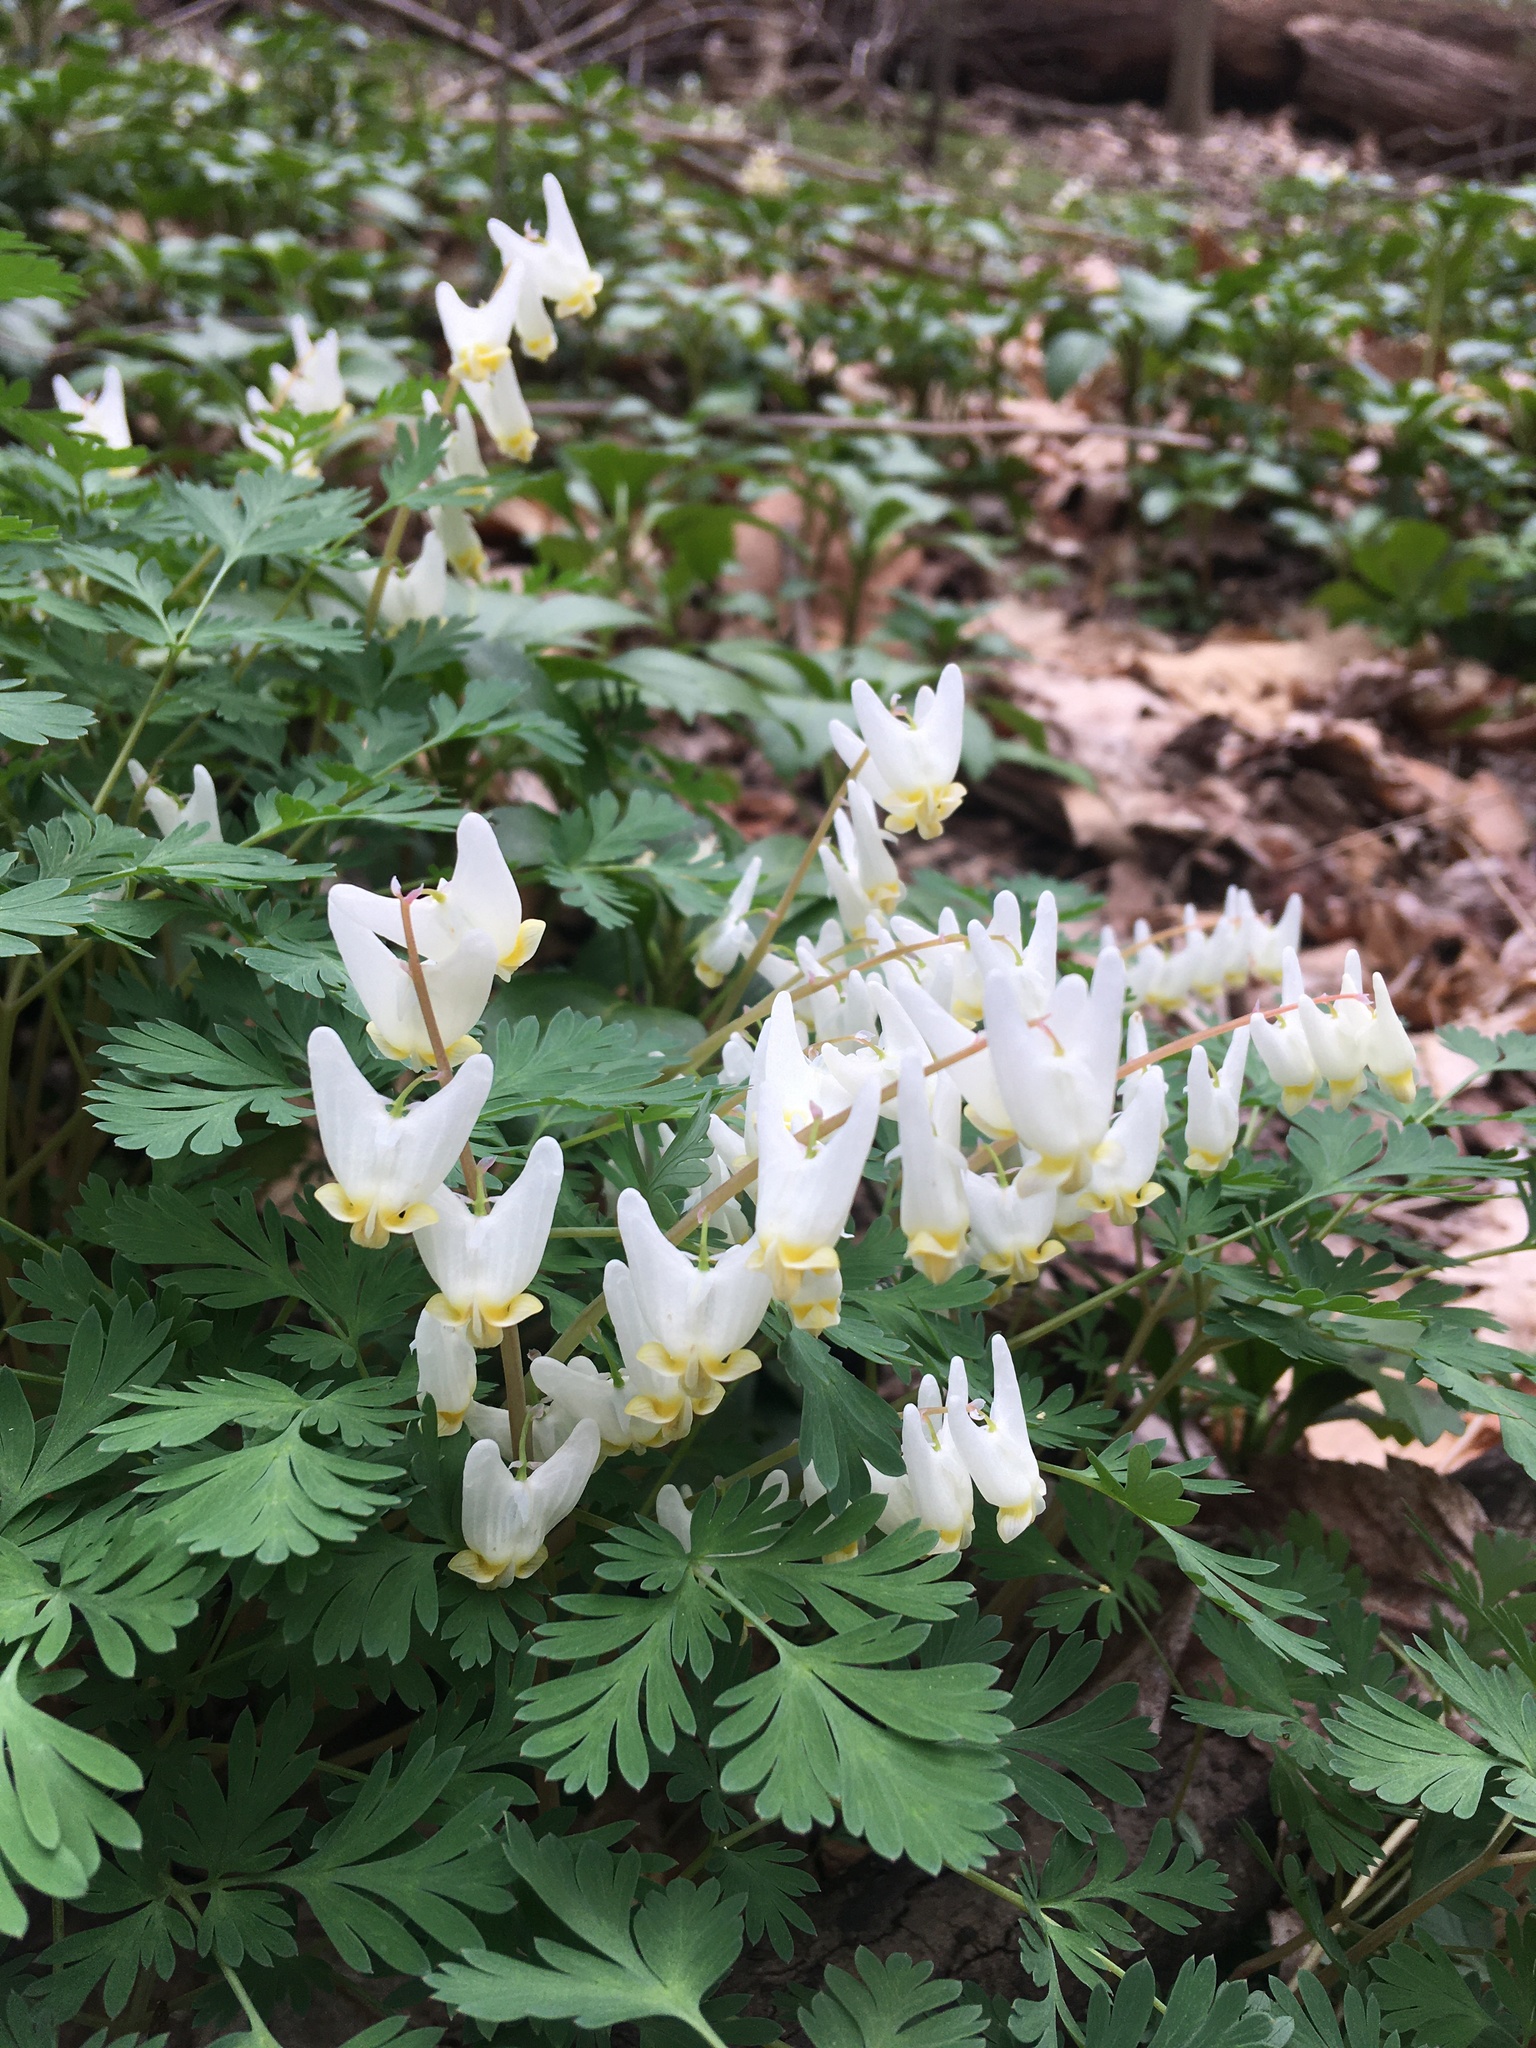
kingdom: Plantae
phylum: Tracheophyta
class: Magnoliopsida
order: Ranunculales
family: Papaveraceae
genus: Dicentra
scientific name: Dicentra cucullaria
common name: Dutchman's breeches
